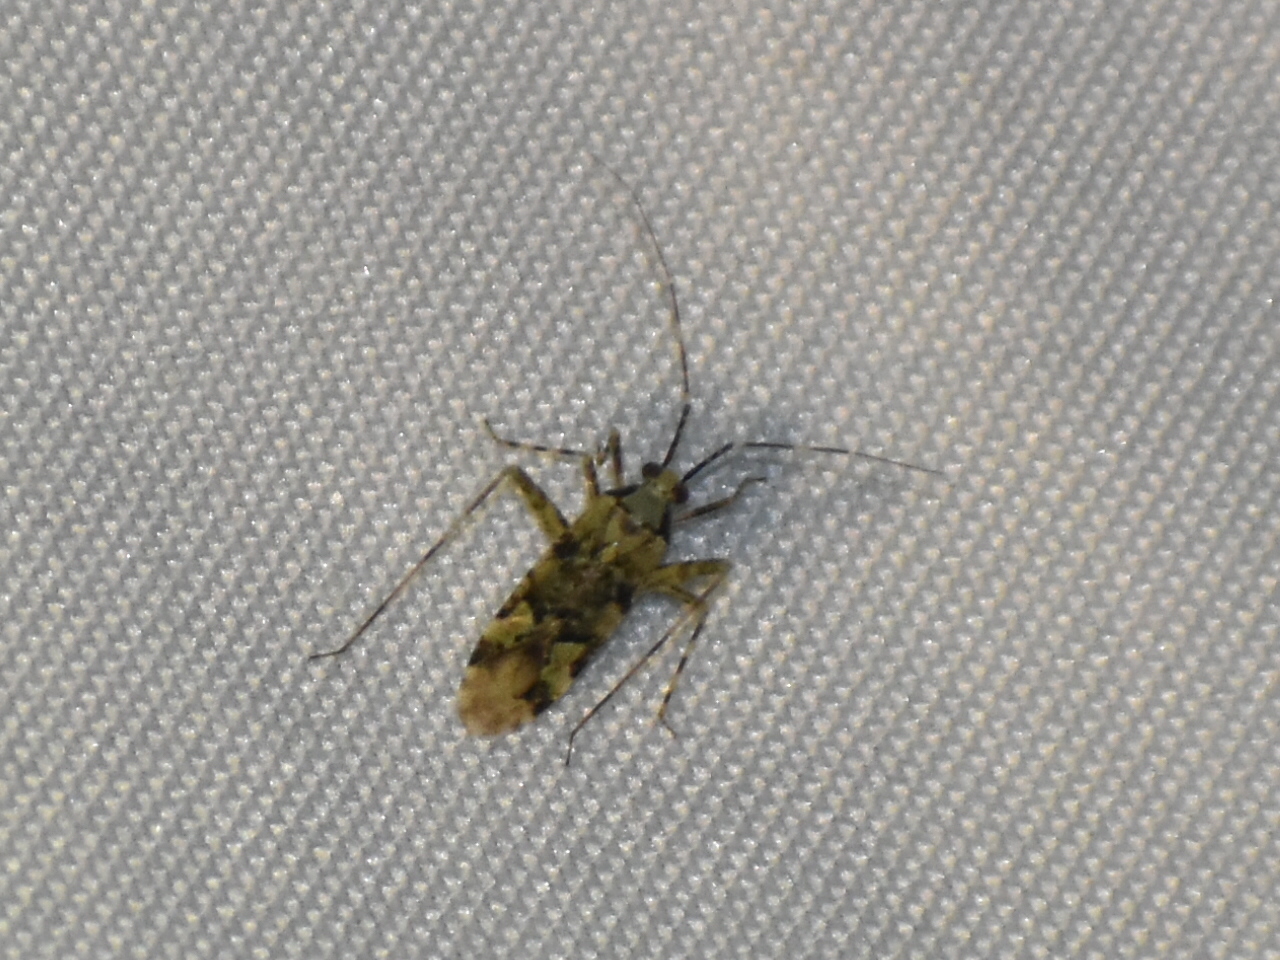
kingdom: Animalia
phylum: Arthropoda
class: Insecta
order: Hemiptera
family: Miridae
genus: Phytocoris
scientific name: Phytocoris tiliae
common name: Plant bug
